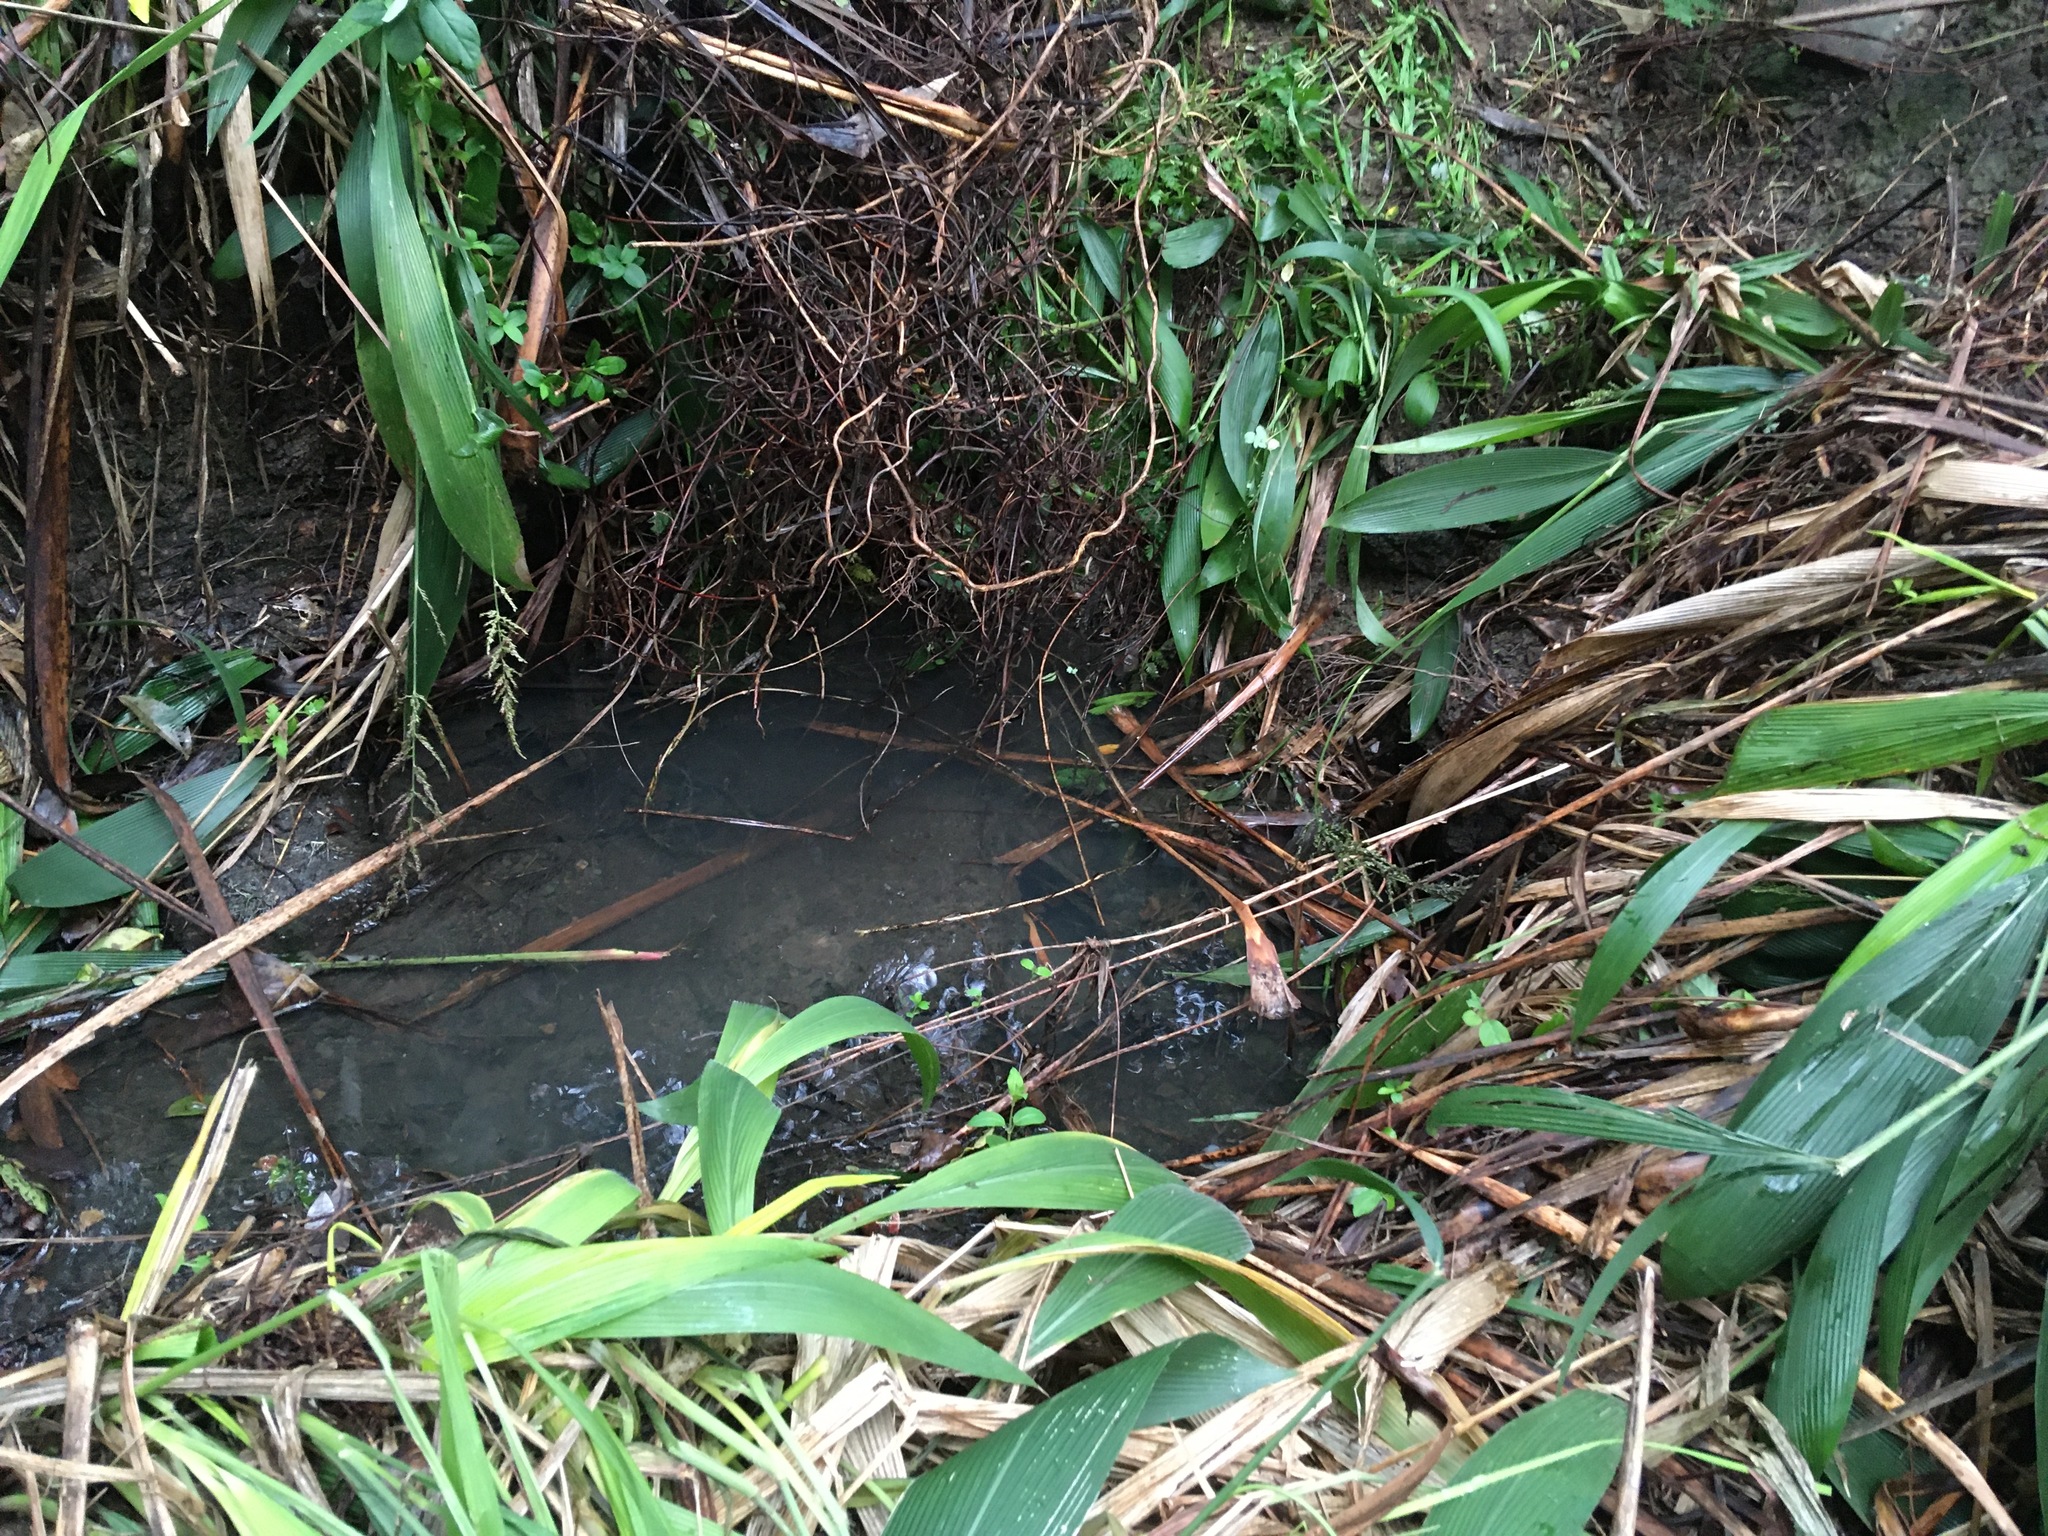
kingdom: Plantae
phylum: Tracheophyta
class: Magnoliopsida
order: Dipsacales
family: Caprifoliaceae
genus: Lonicera
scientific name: Lonicera japonica
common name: Japanese honeysuckle
